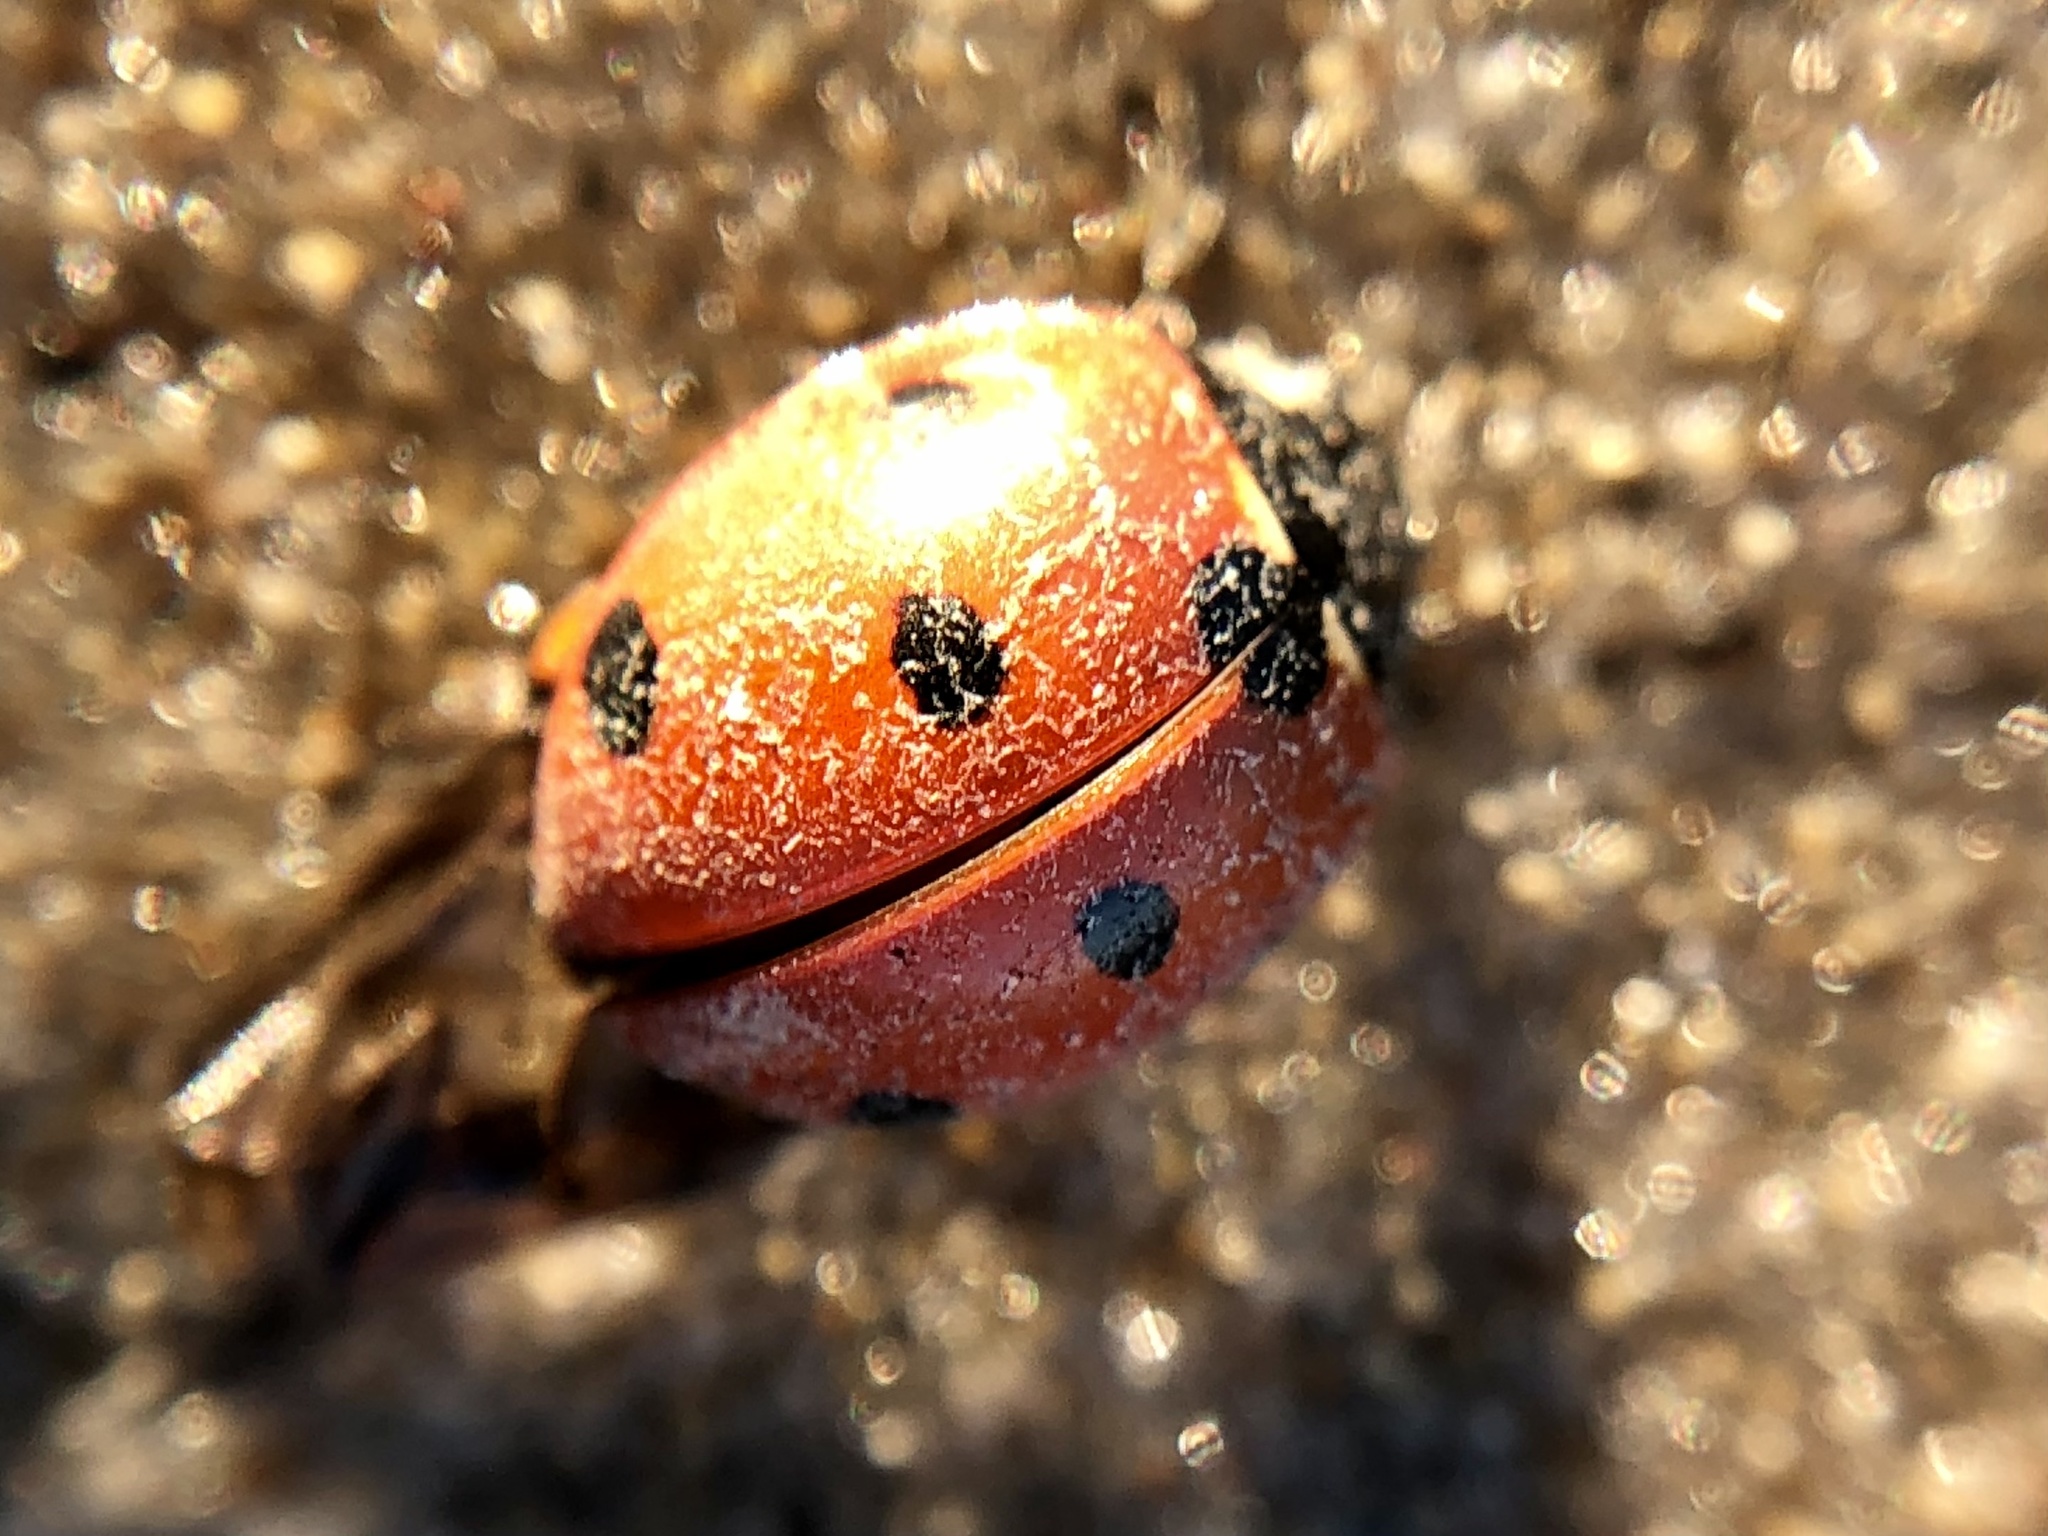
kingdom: Animalia
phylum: Arthropoda
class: Insecta
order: Coleoptera
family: Coccinellidae
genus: Coccinella
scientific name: Coccinella septempunctata
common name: Sevenspotted lady beetle
